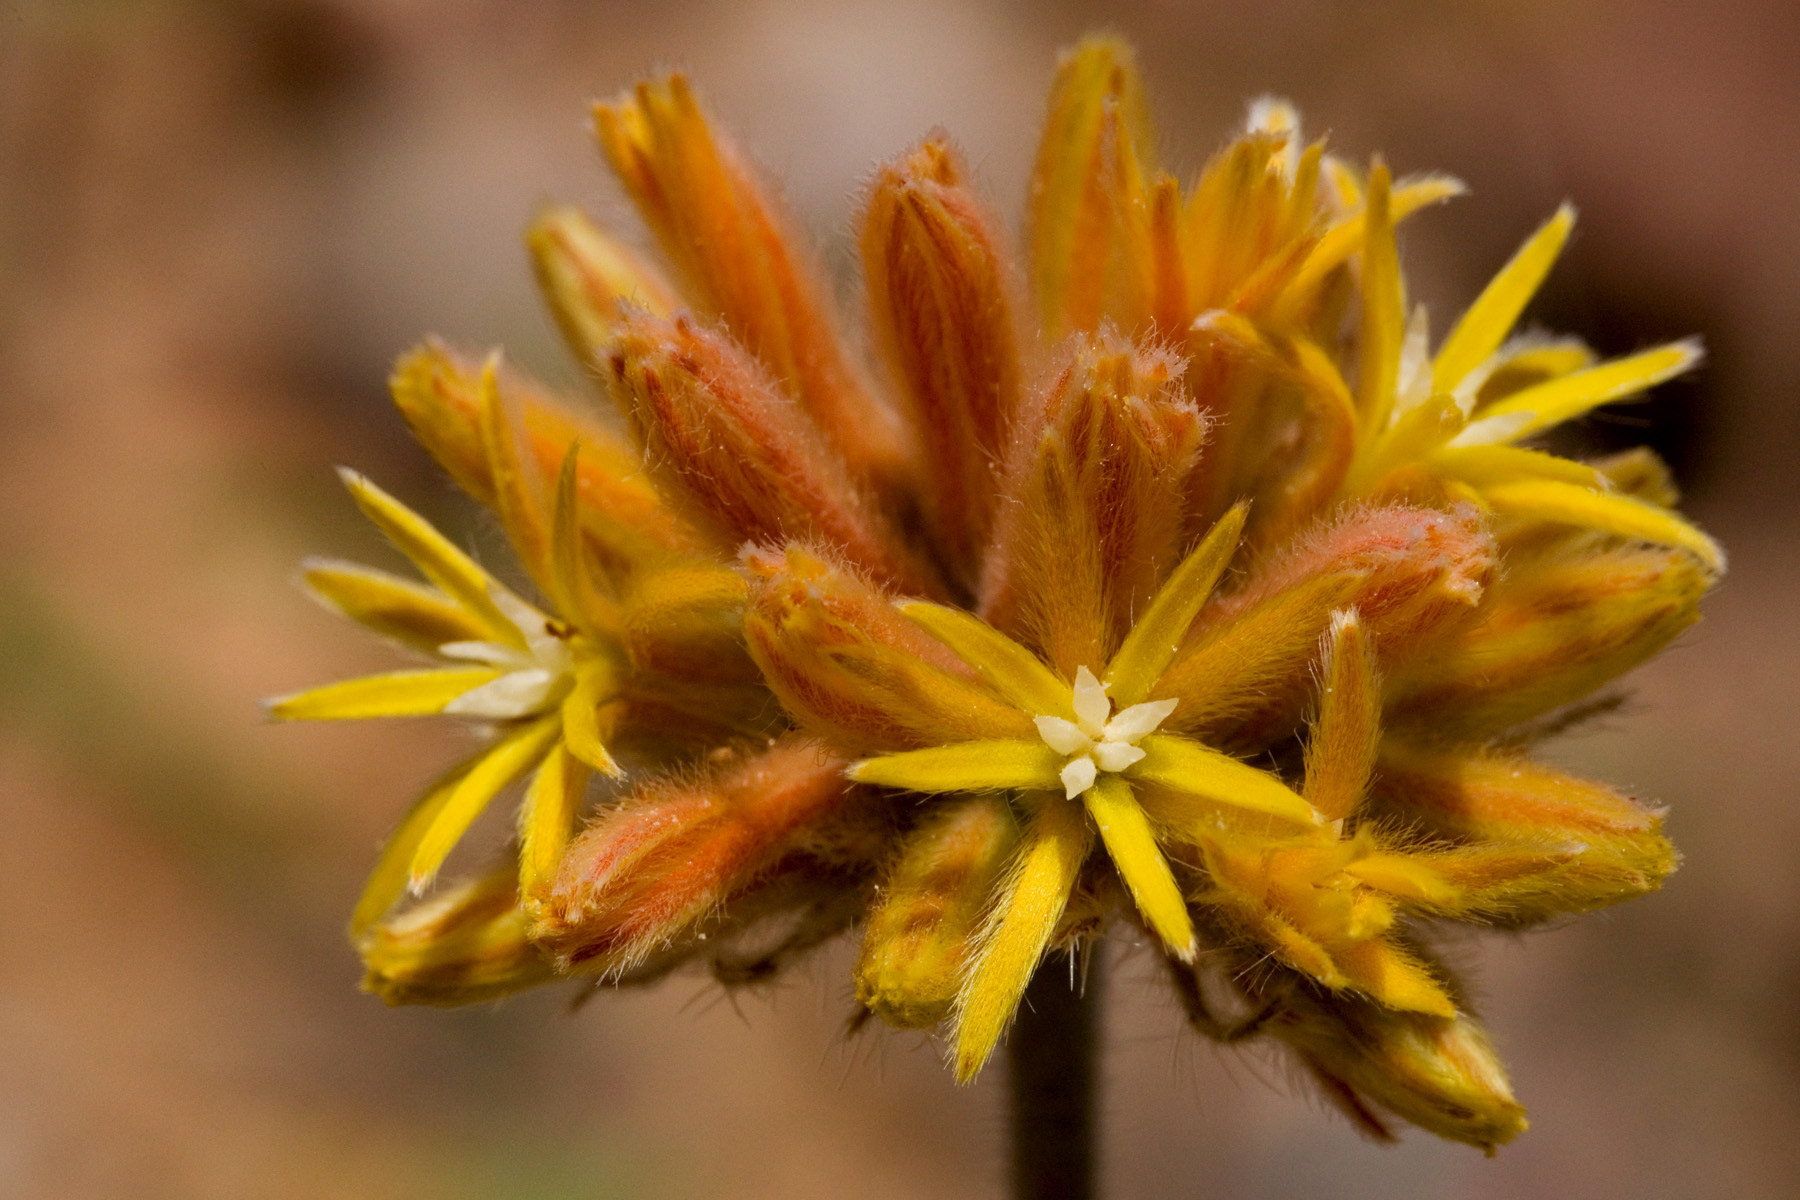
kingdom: Plantae
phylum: Tracheophyta
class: Magnoliopsida
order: Cornales
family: Loasaceae
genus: Cevallia
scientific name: Cevallia sinuata
